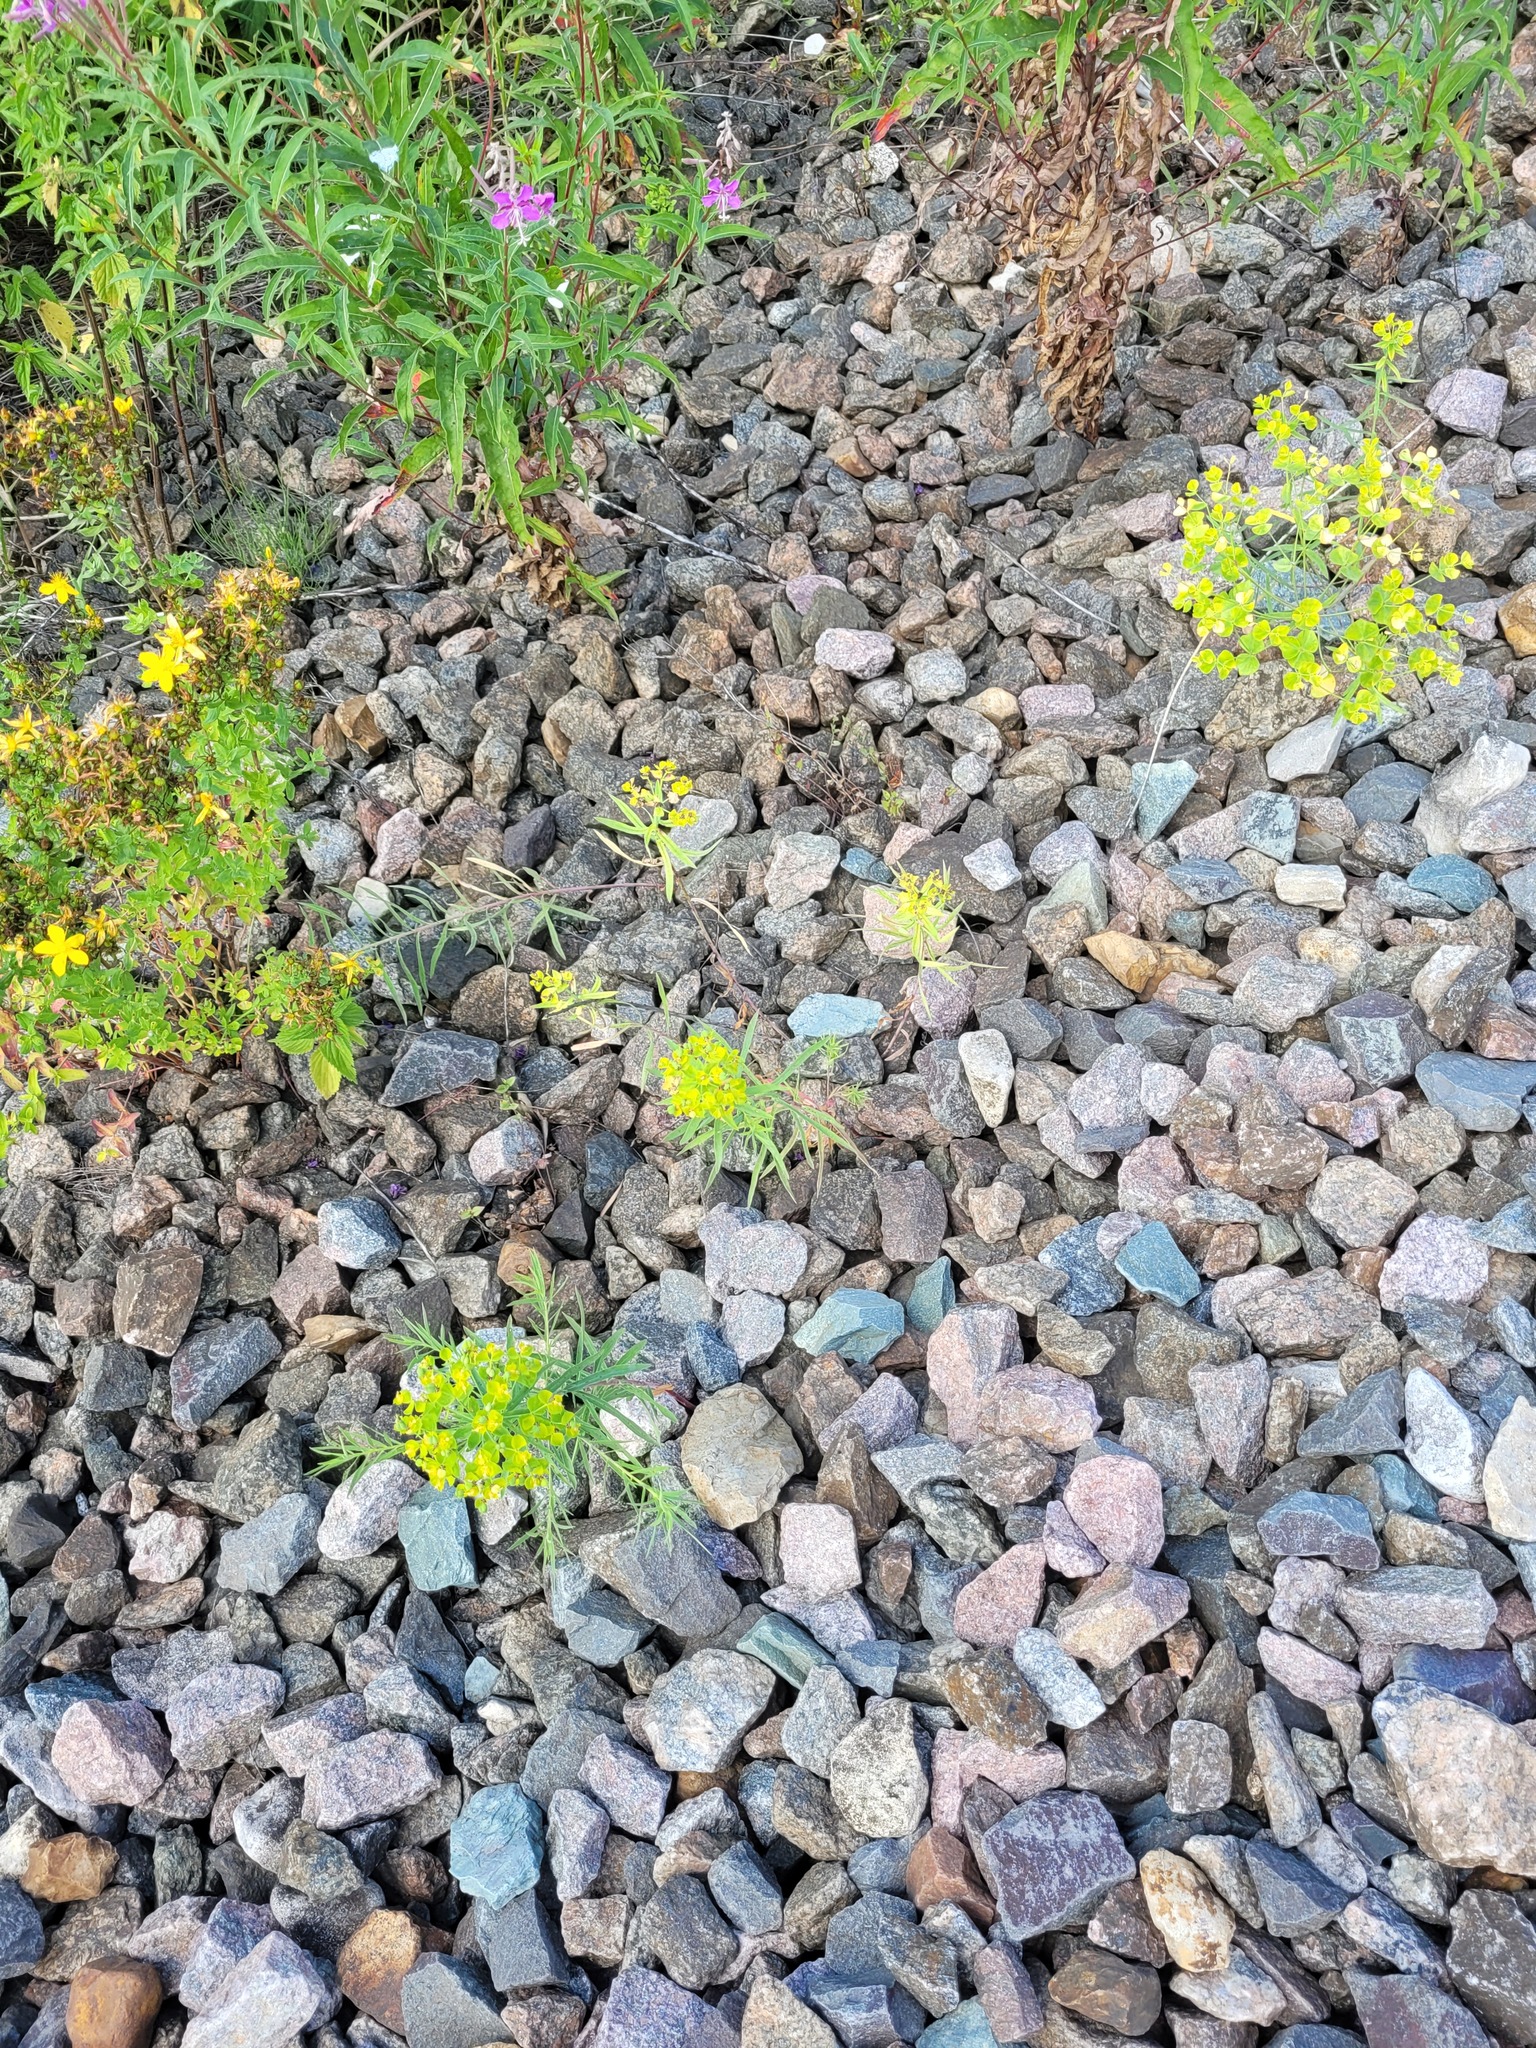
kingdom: Plantae
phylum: Tracheophyta
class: Magnoliopsida
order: Malpighiales
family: Euphorbiaceae
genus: Euphorbia
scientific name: Euphorbia virgata
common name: Leafy spurge
